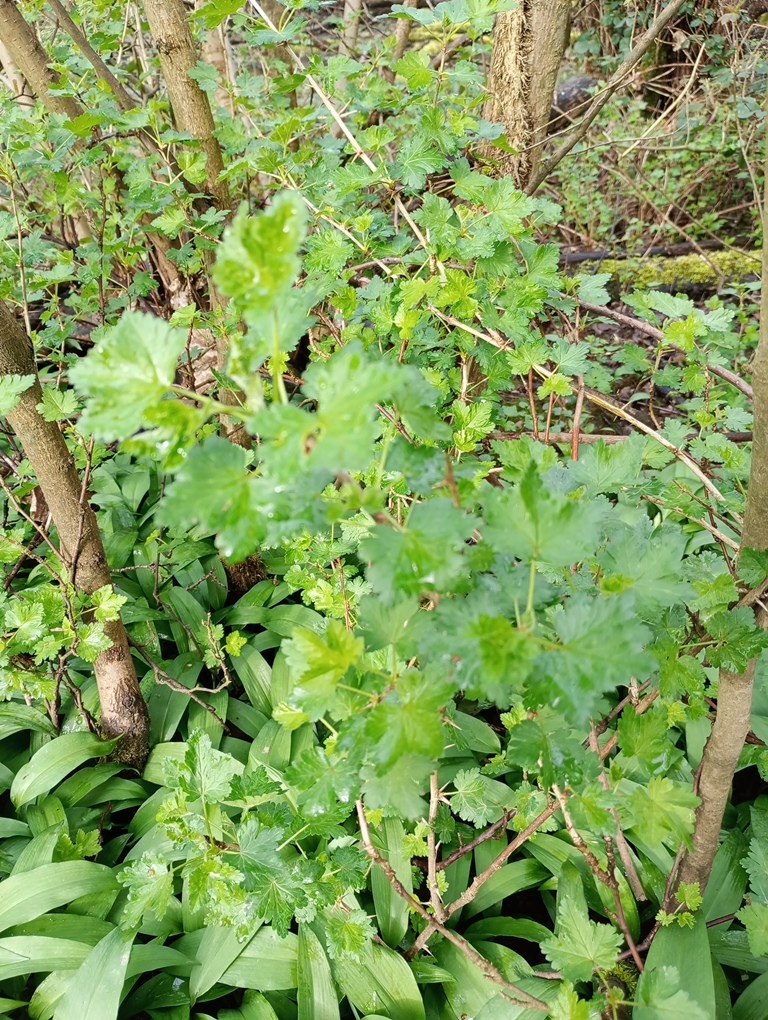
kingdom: Plantae
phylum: Tracheophyta
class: Magnoliopsida
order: Saxifragales
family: Grossulariaceae
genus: Ribes
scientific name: Ribes uva-crispa
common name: Gooseberry
